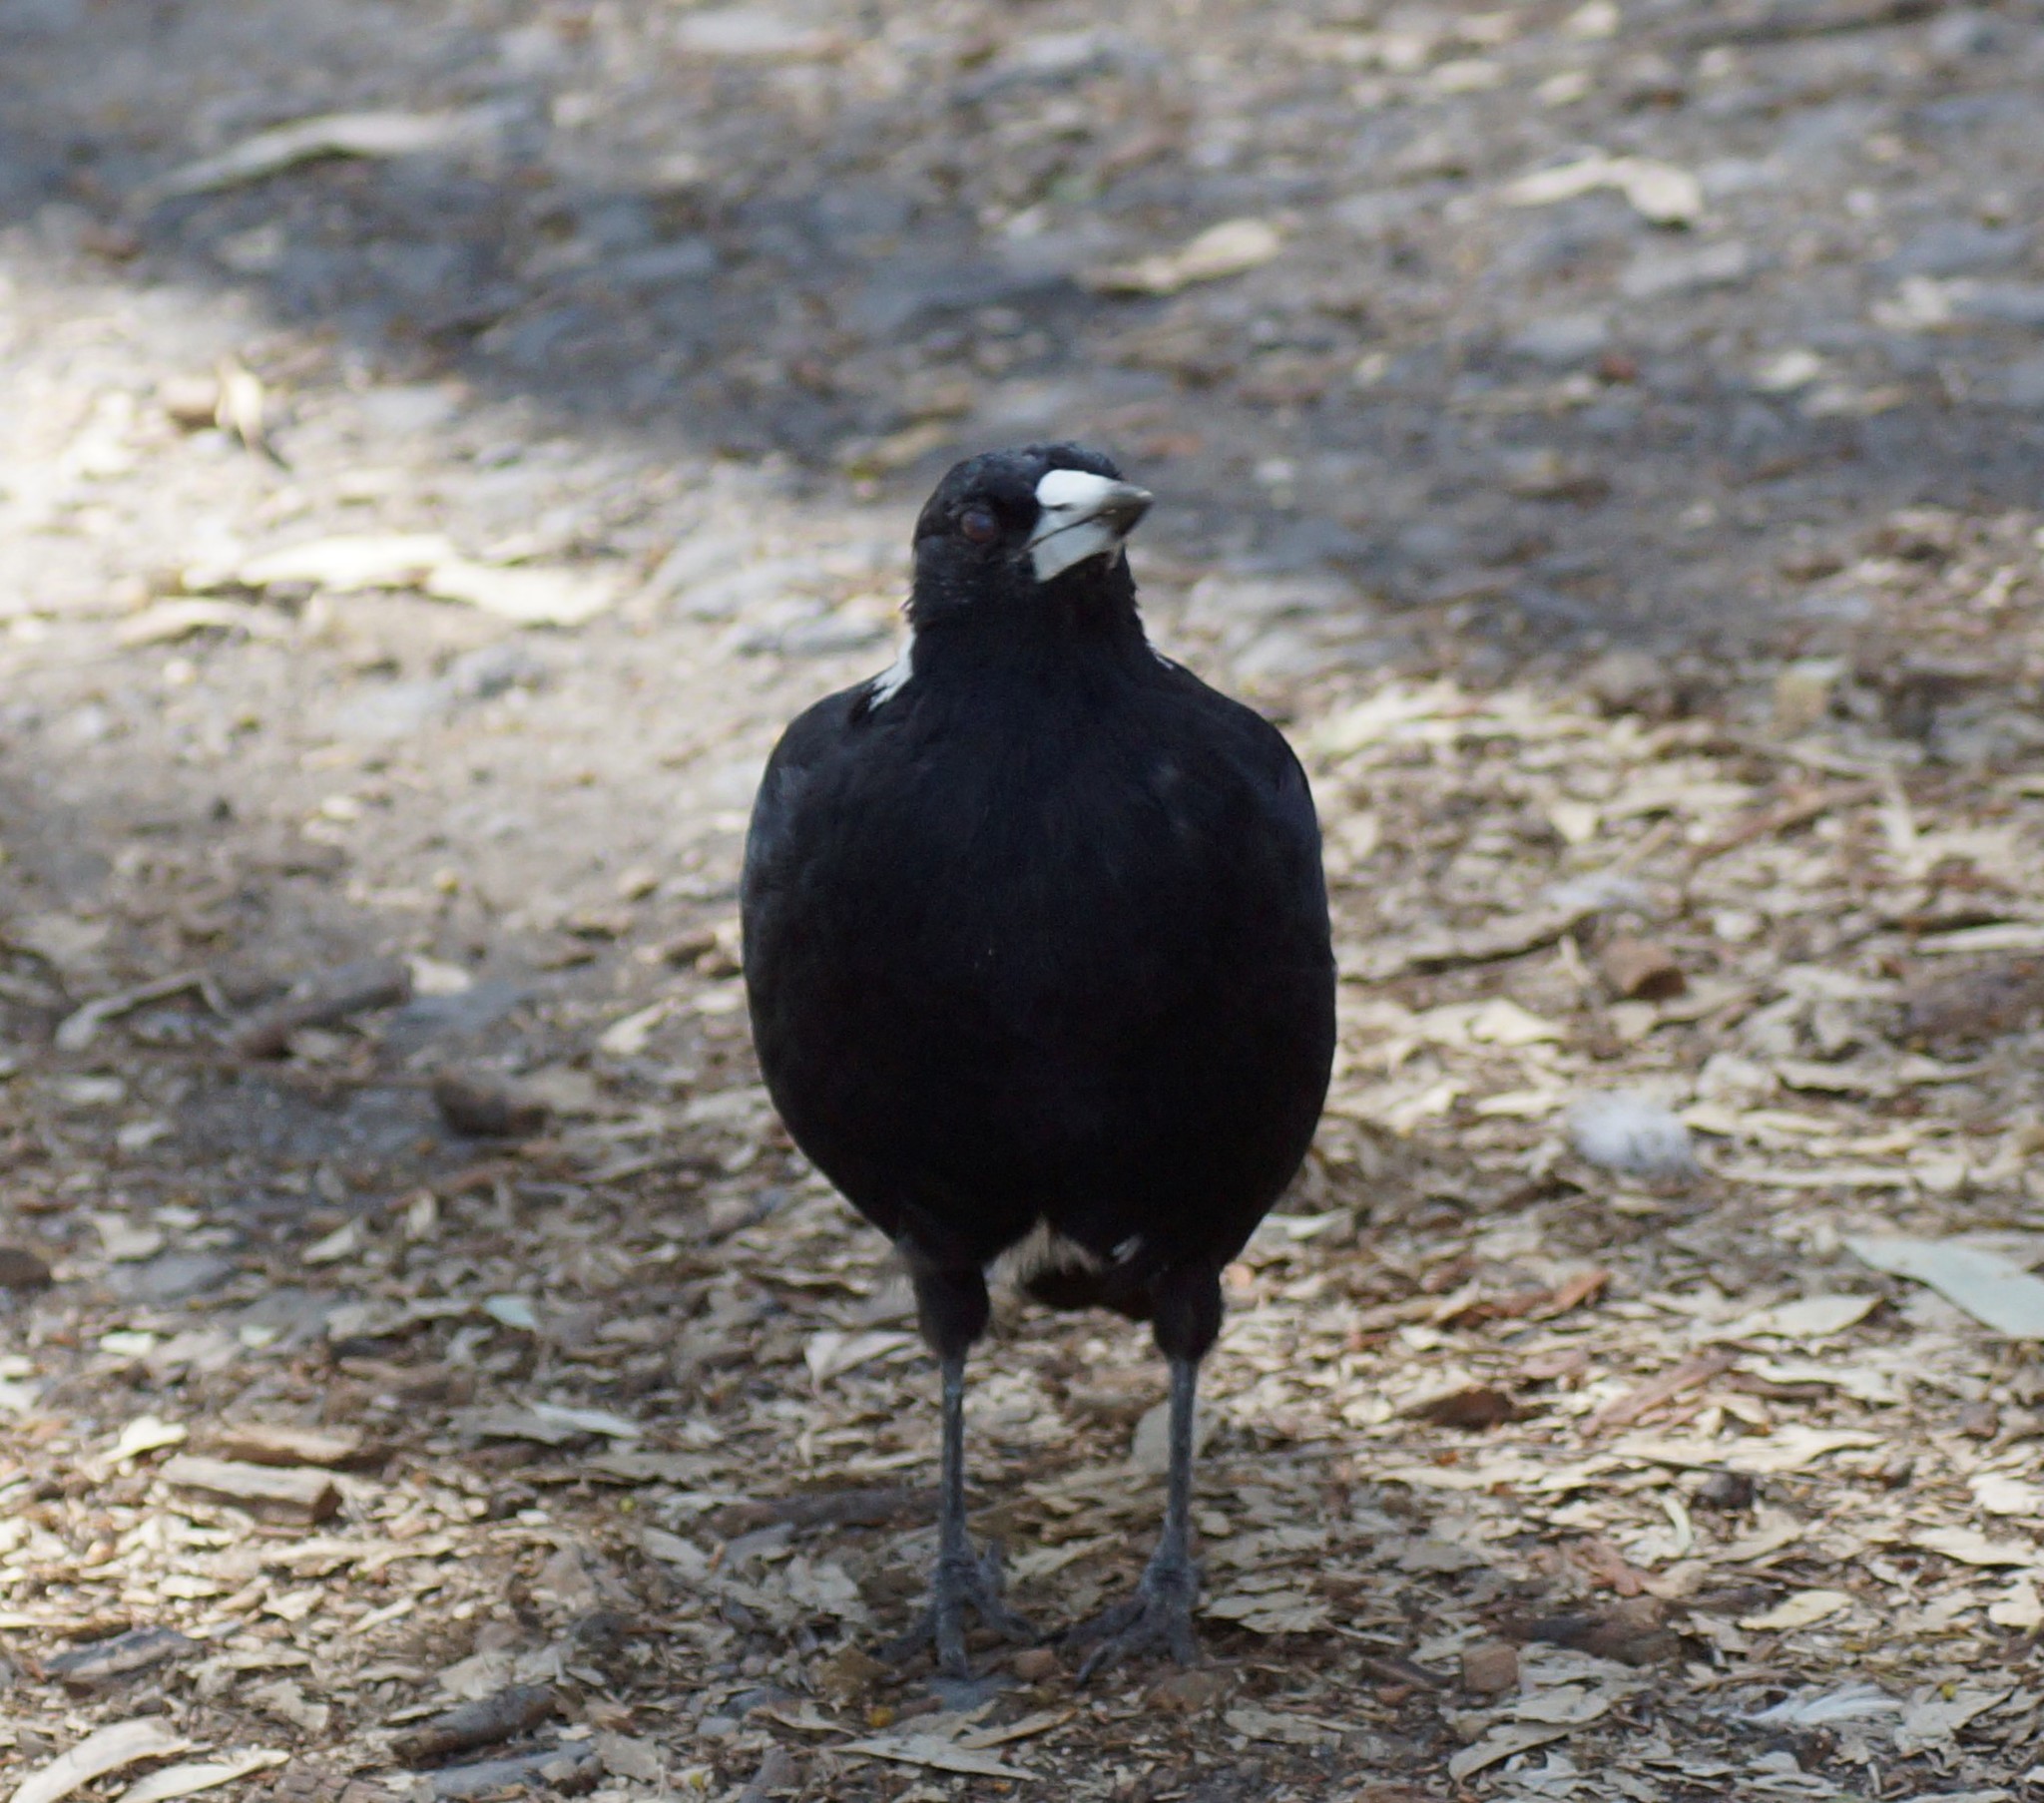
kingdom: Animalia
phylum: Chordata
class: Aves
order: Passeriformes
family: Cracticidae
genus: Gymnorhina
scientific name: Gymnorhina tibicen
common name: Australian magpie
